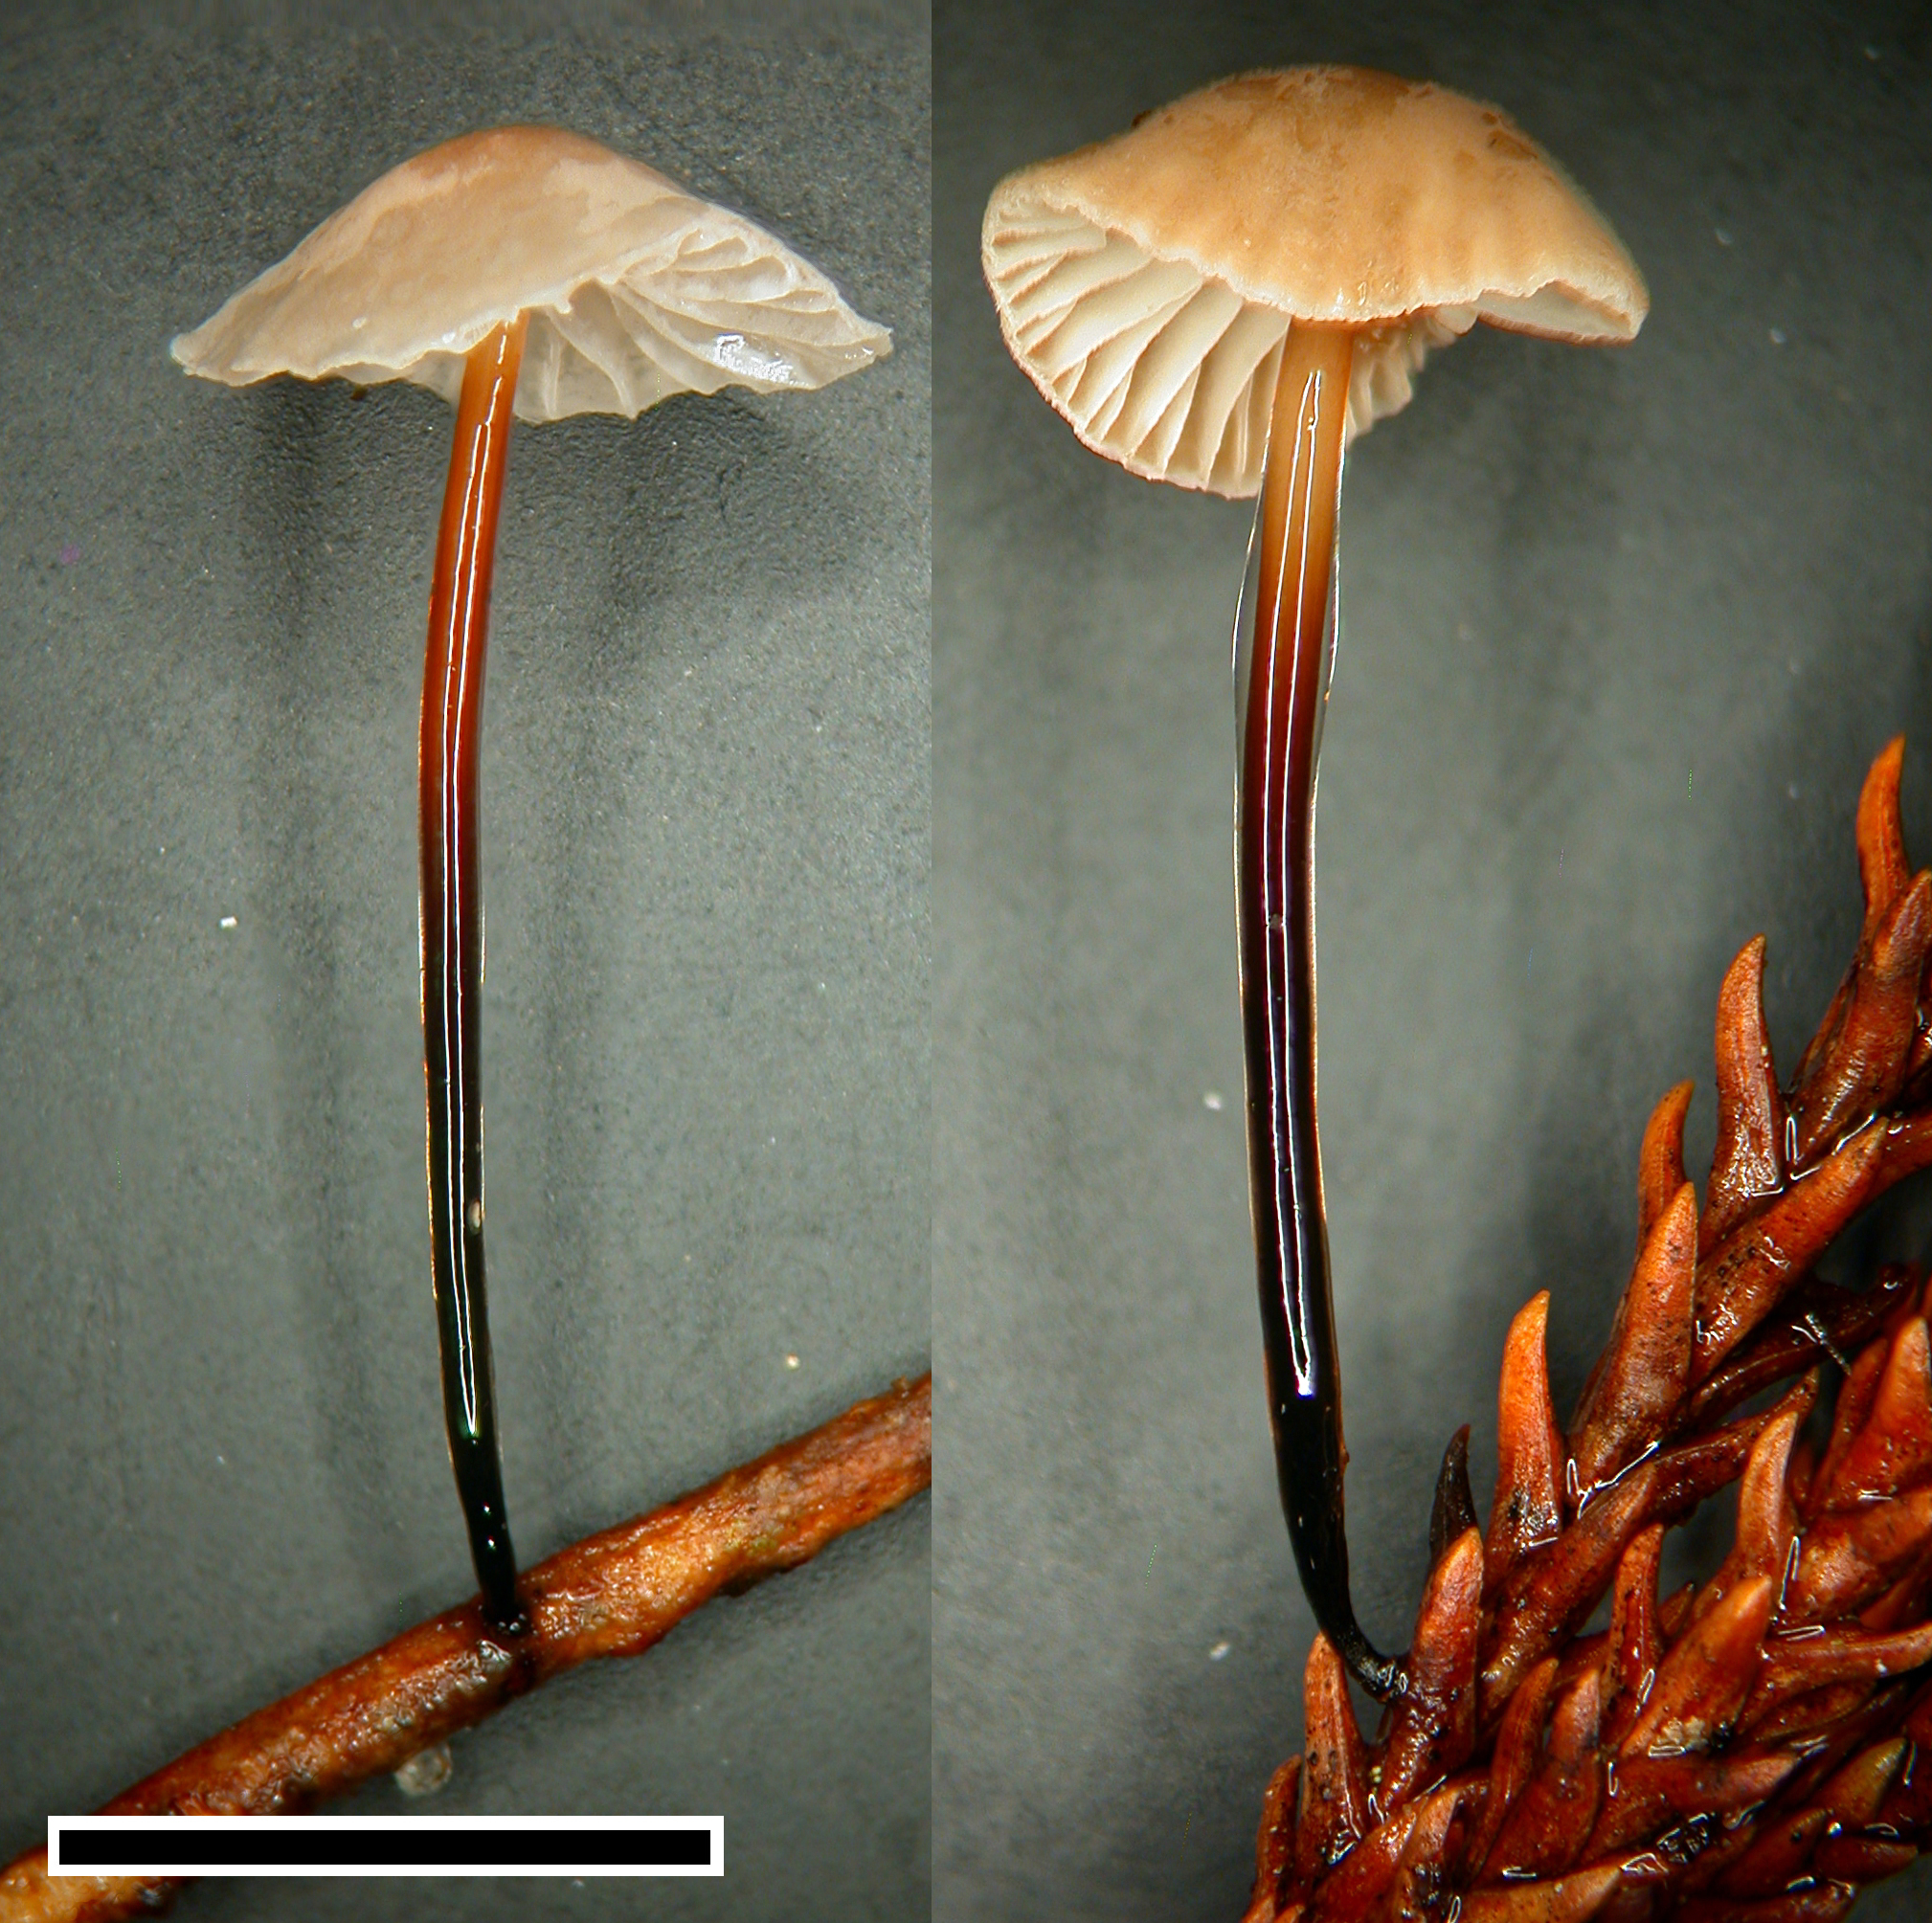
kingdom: Fungi
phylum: Basidiomycota
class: Agaricomycetes
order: Agaricales
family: Omphalotaceae
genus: Gymnopus
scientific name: Gymnopus
